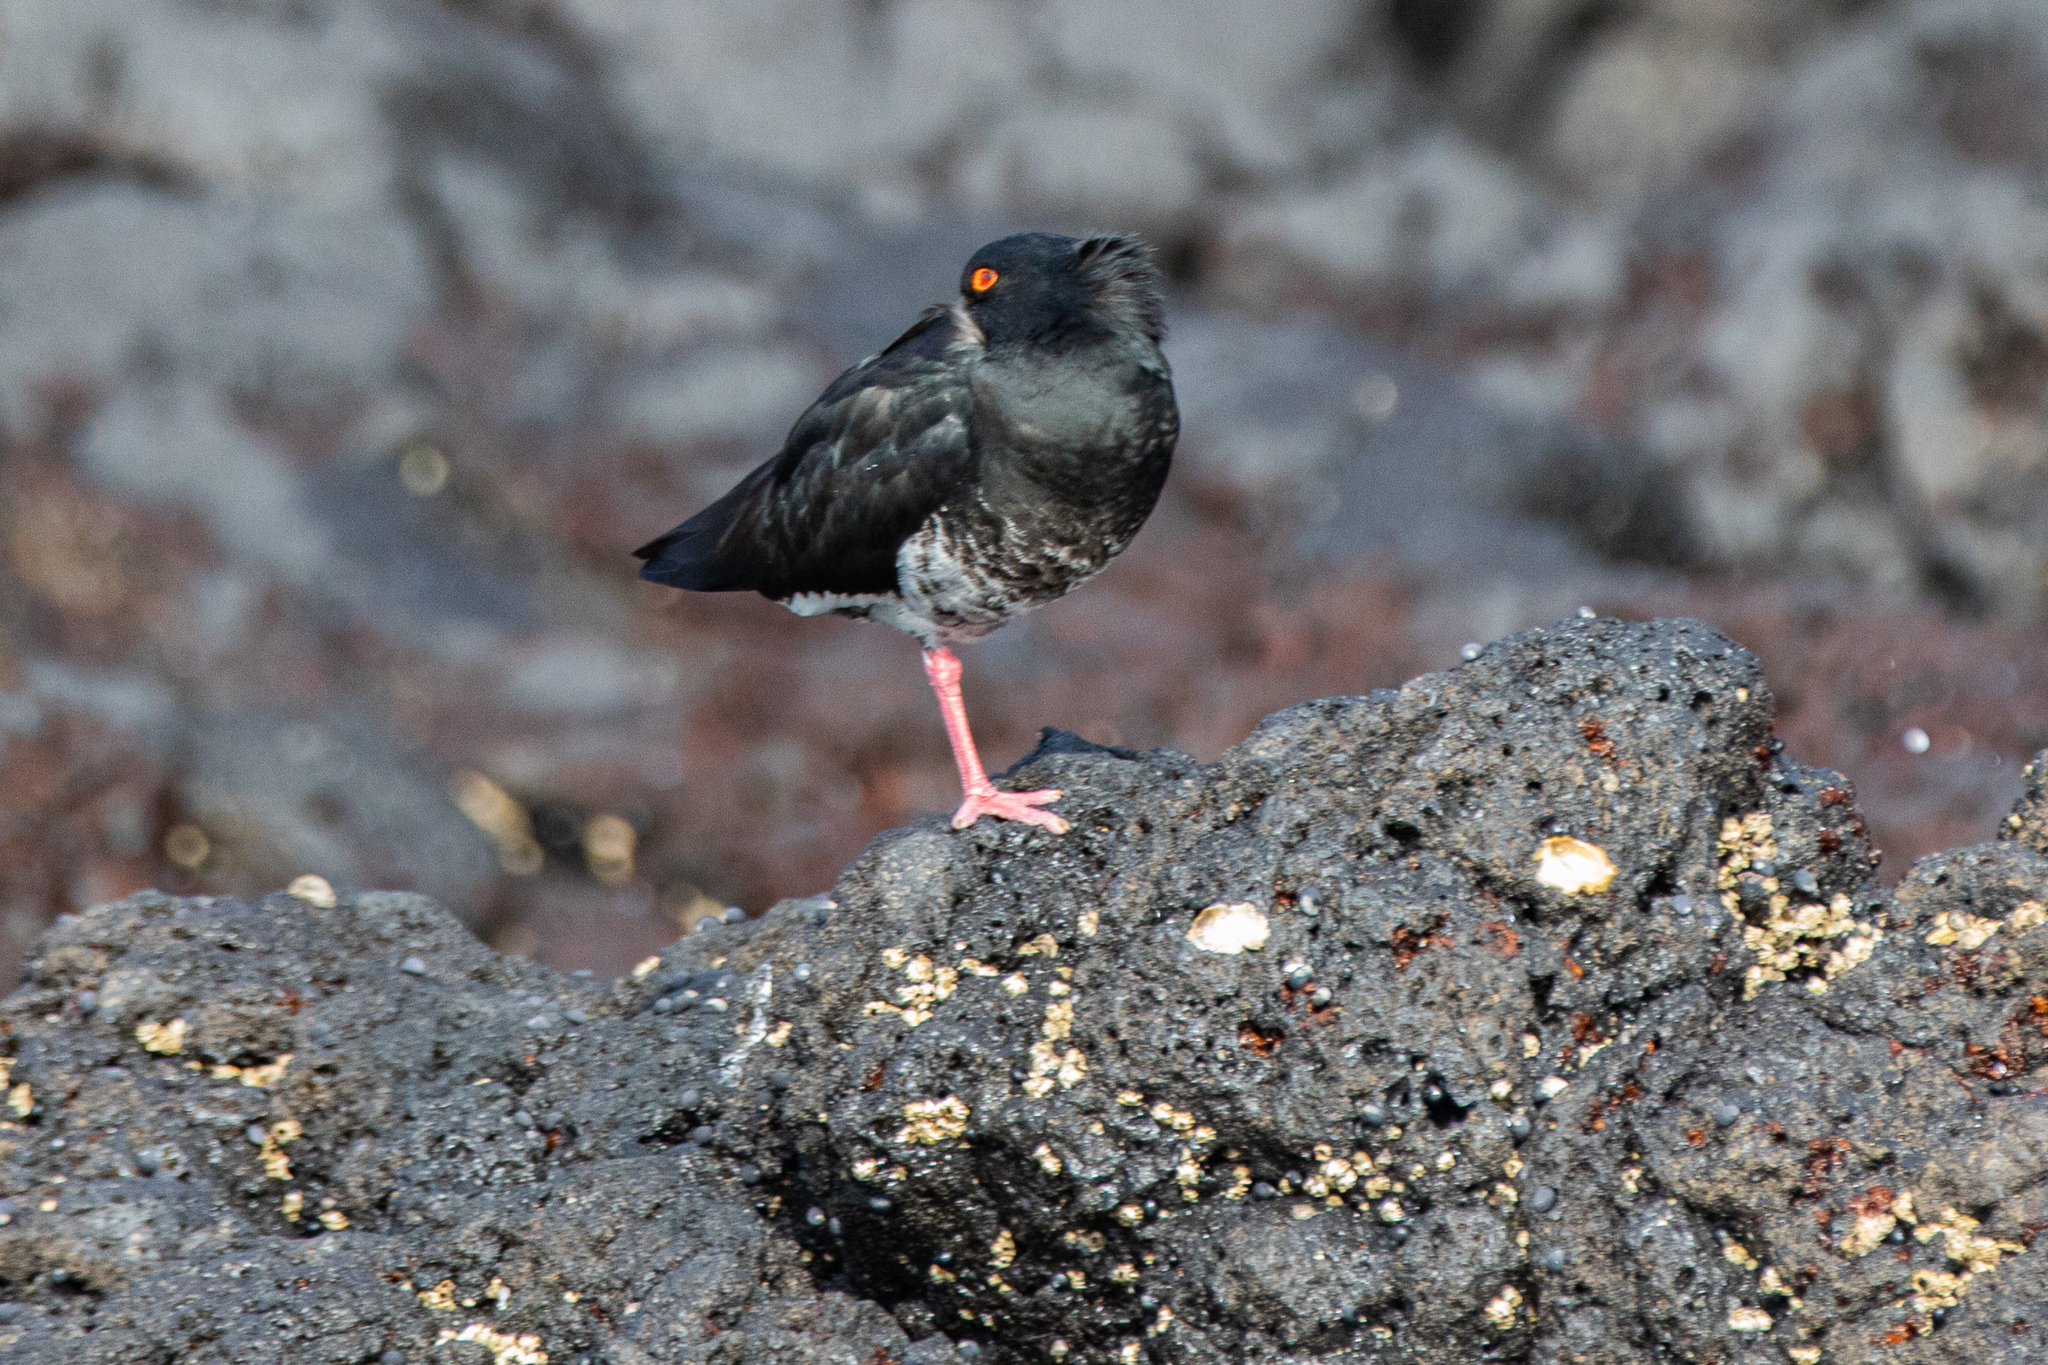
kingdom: Animalia
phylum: Chordata
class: Aves
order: Charadriiformes
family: Haematopodidae
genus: Haematopus
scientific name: Haematopus unicolor
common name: Variable oystercatcher
